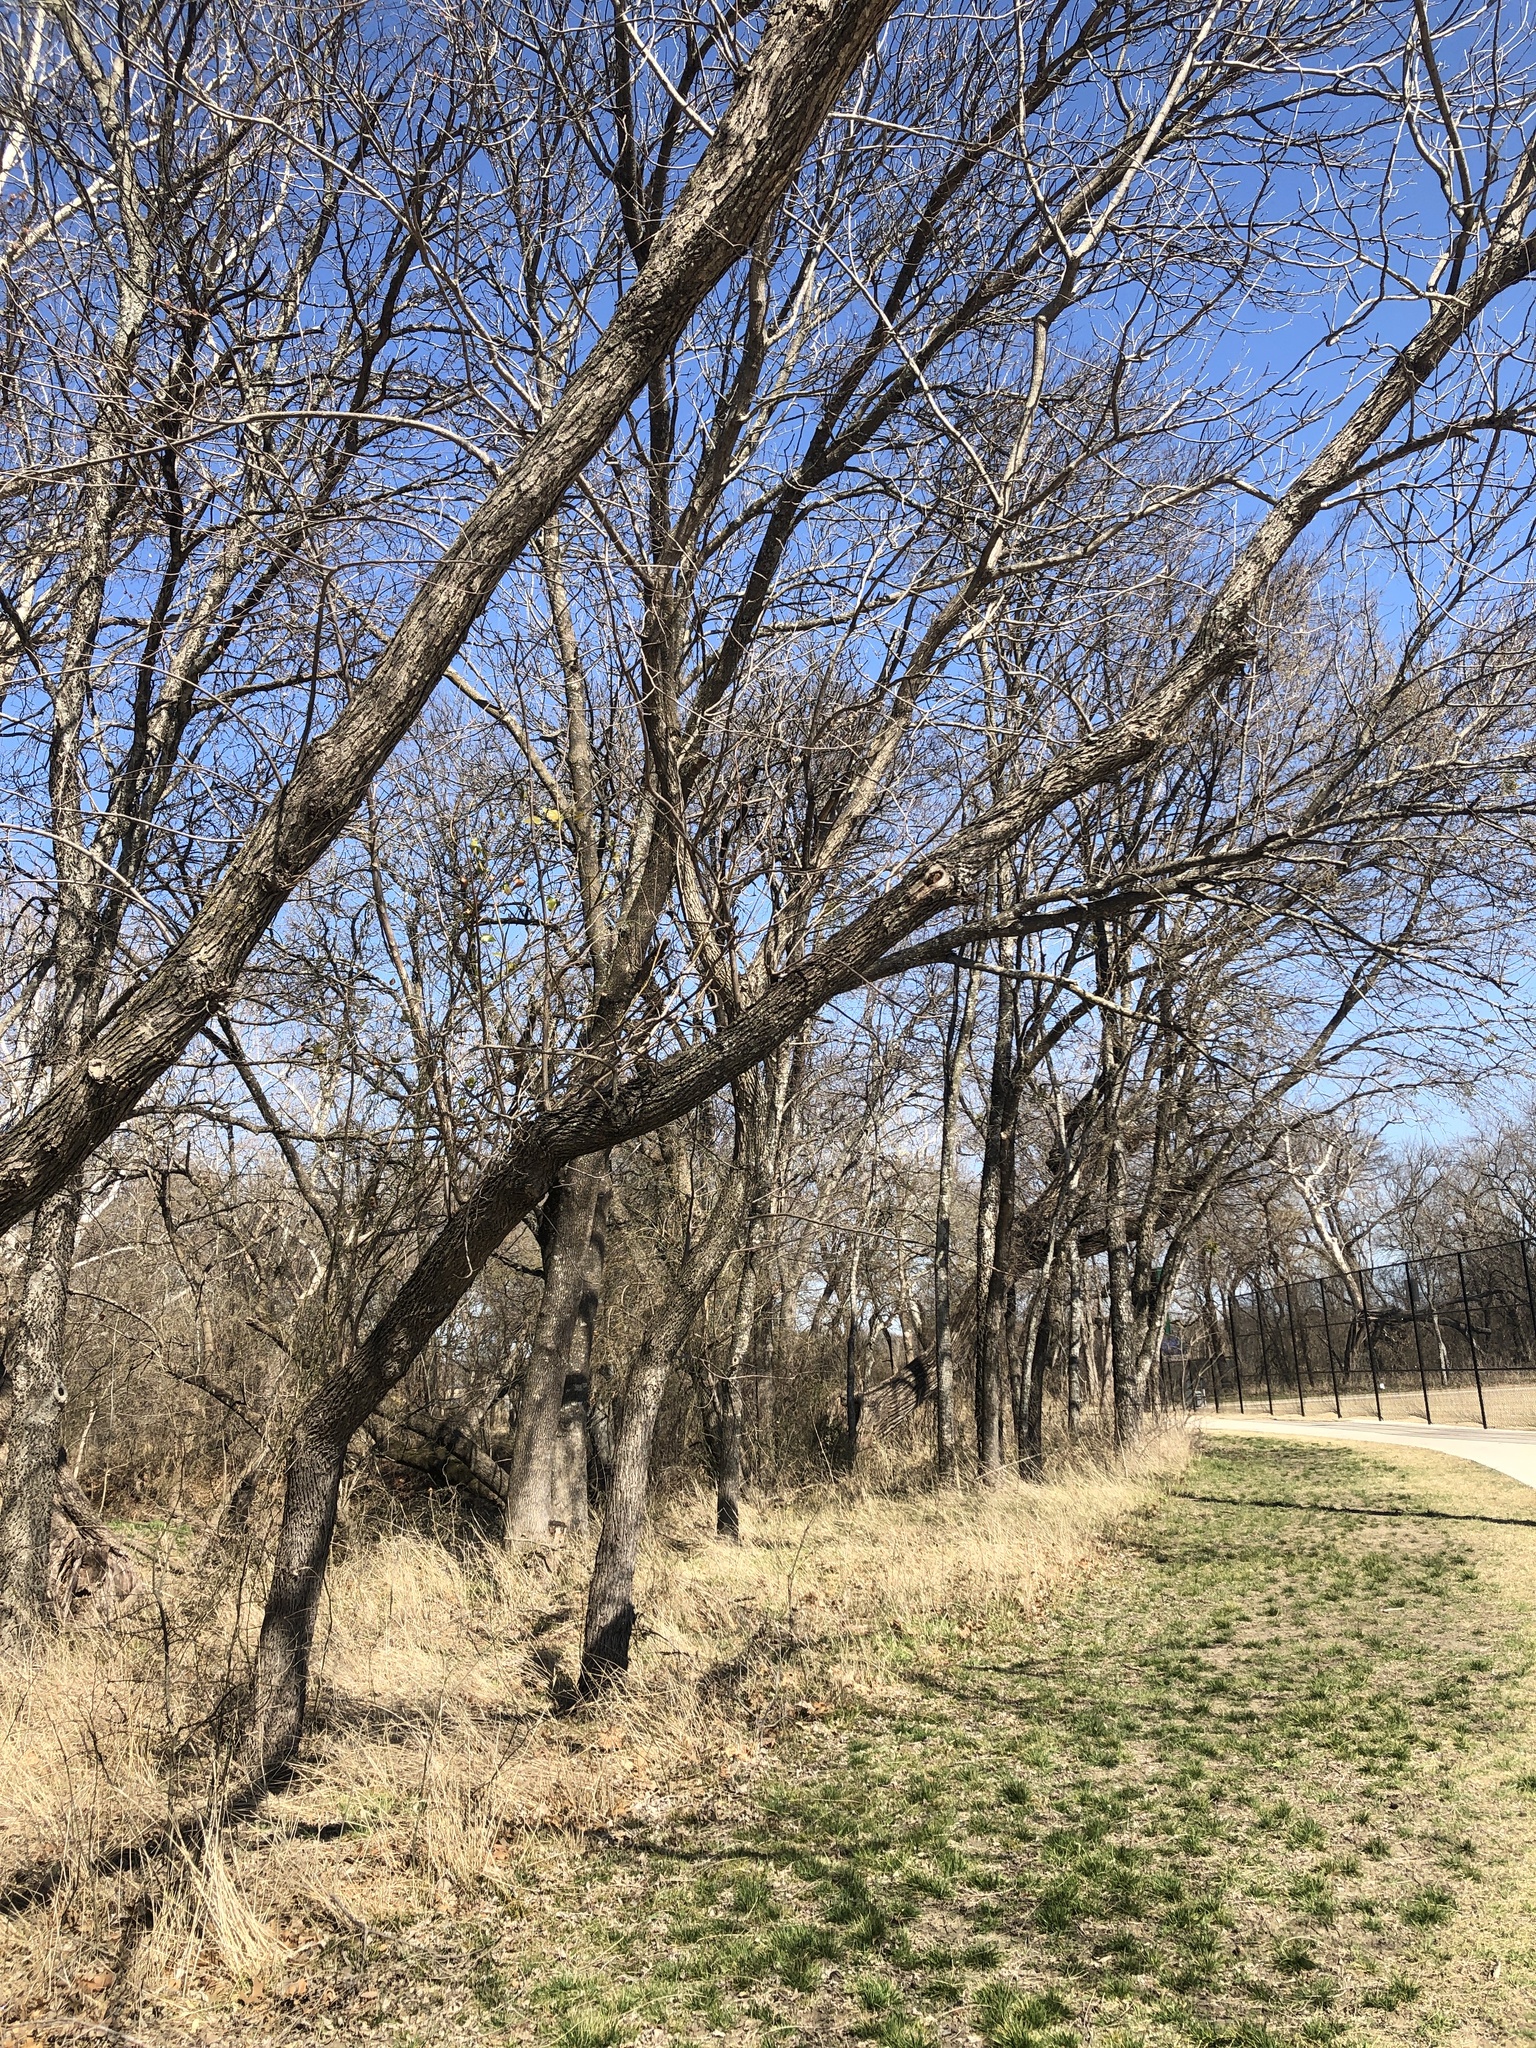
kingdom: Plantae
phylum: Tracheophyta
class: Magnoliopsida
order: Fagales
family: Juglandaceae
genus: Juglans
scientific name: Juglans nigra
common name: Black walnut
